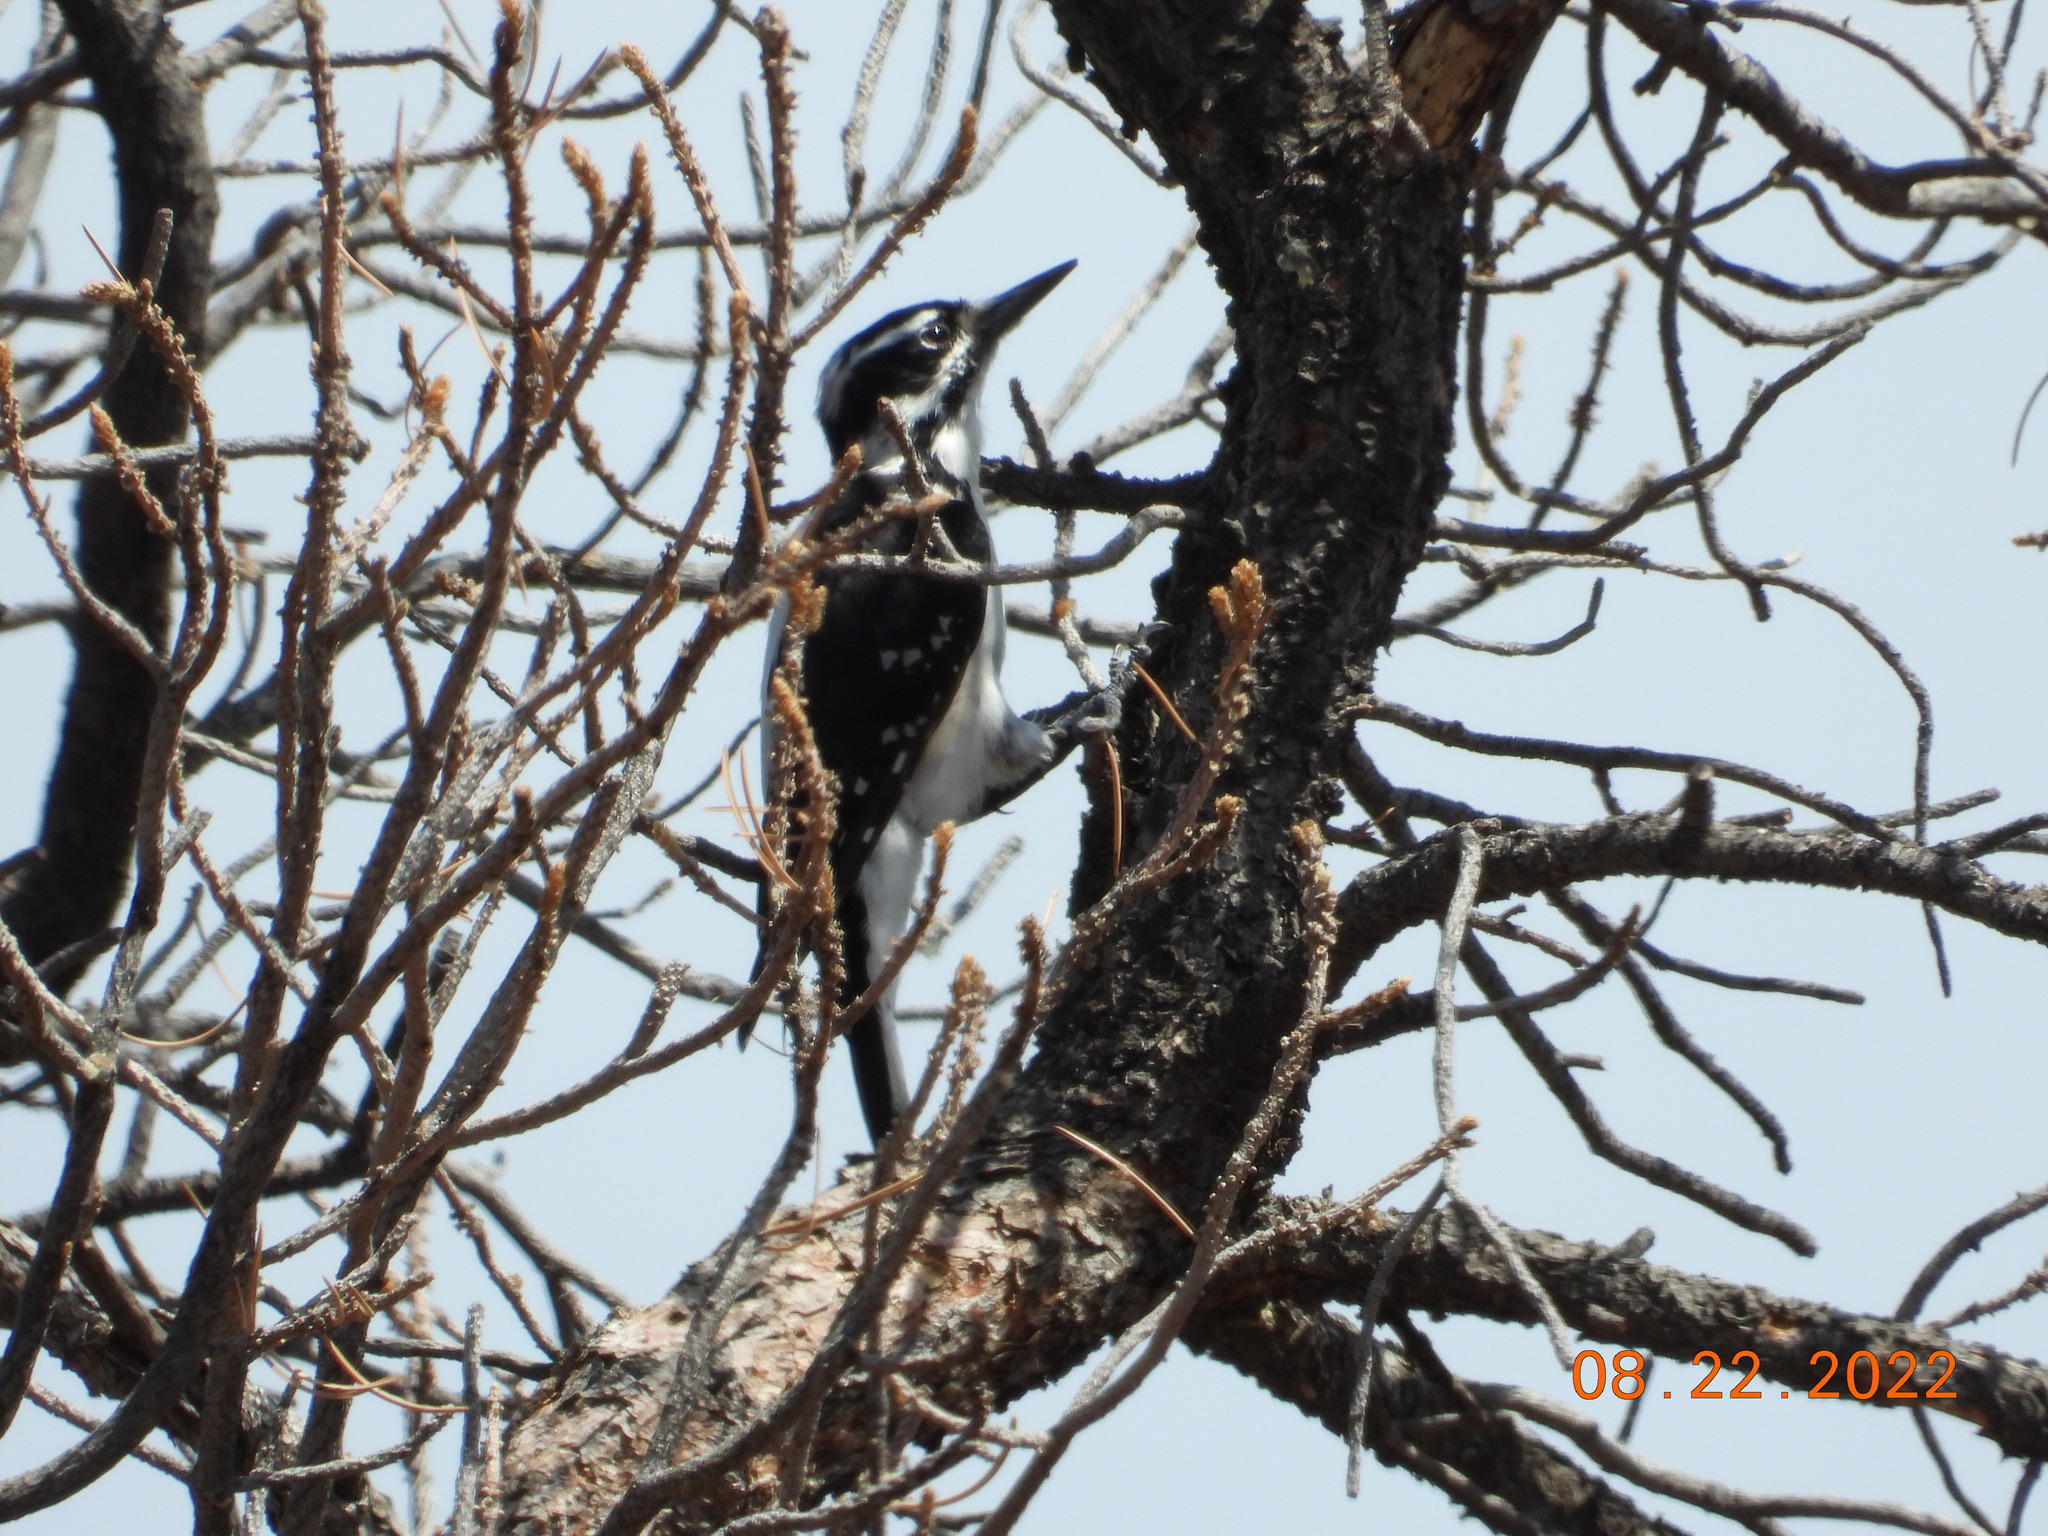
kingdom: Animalia
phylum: Chordata
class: Aves
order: Piciformes
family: Picidae
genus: Leuconotopicus
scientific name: Leuconotopicus villosus
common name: Hairy woodpecker
